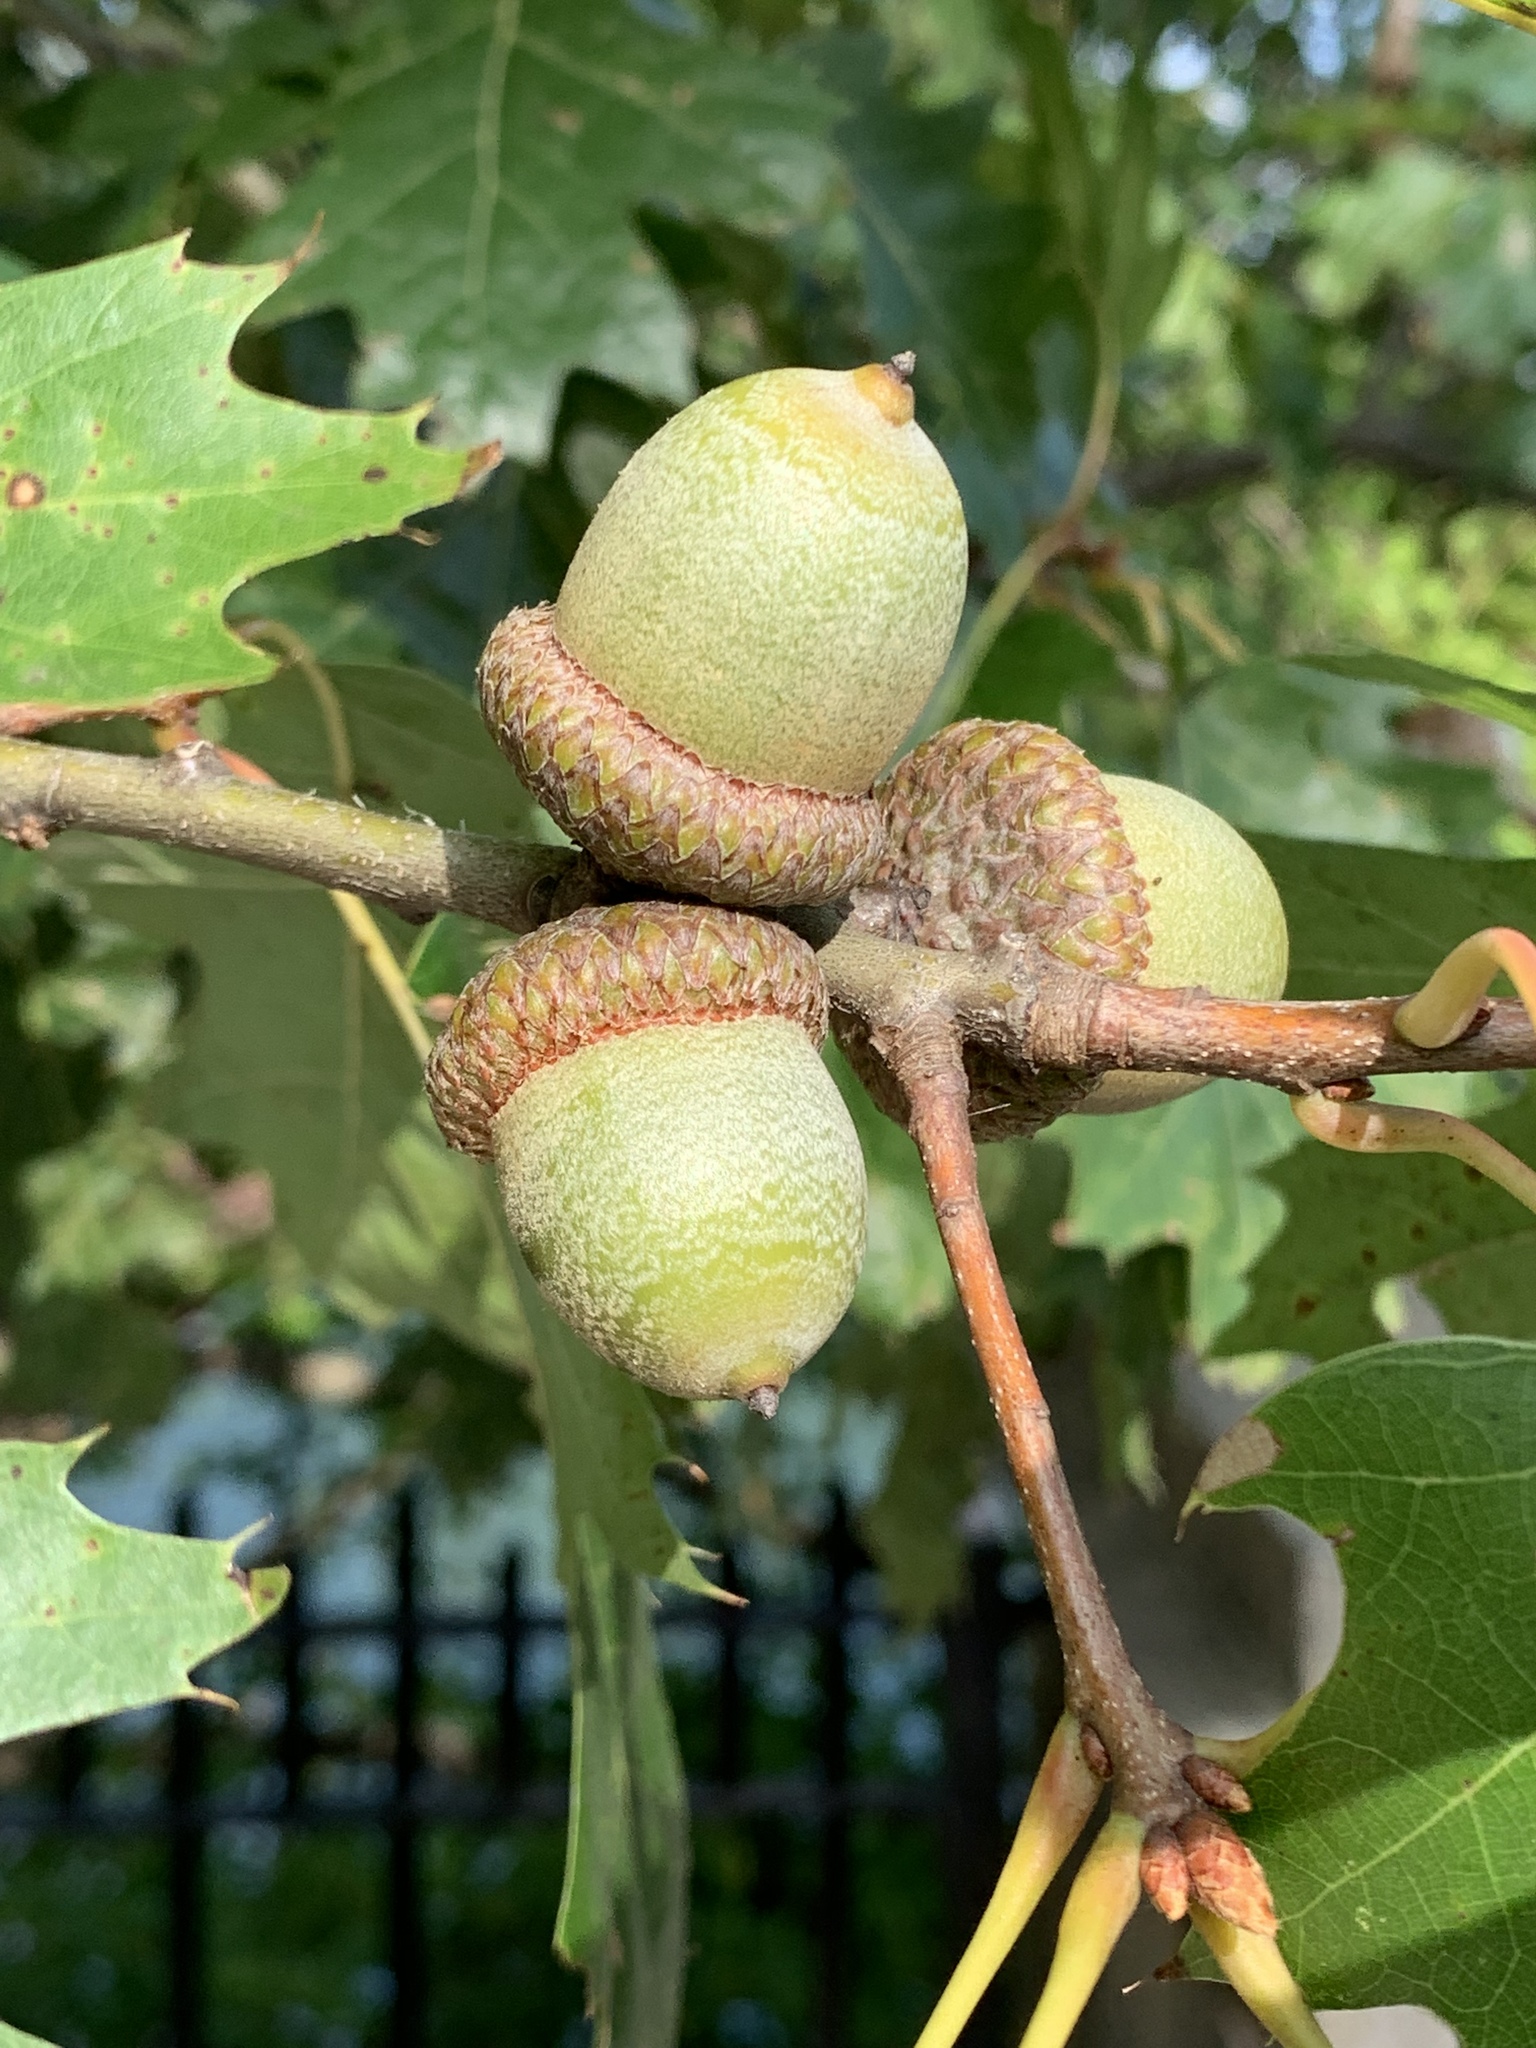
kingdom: Plantae
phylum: Tracheophyta
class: Magnoliopsida
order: Fagales
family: Fagaceae
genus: Quercus
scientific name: Quercus rubra
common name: Red oak
